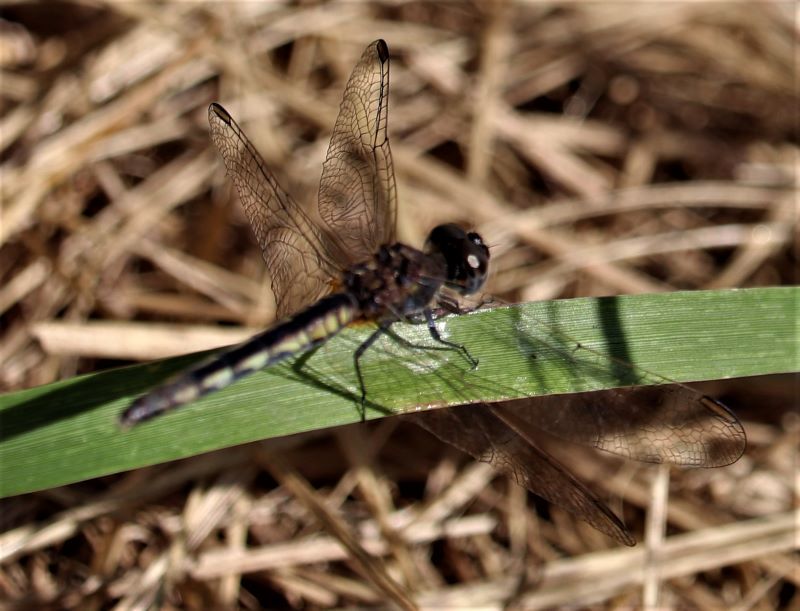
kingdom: Animalia
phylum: Arthropoda
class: Insecta
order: Odonata
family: Libellulidae
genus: Diplacodes
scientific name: Diplacodes lefebvrii
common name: Black percher
